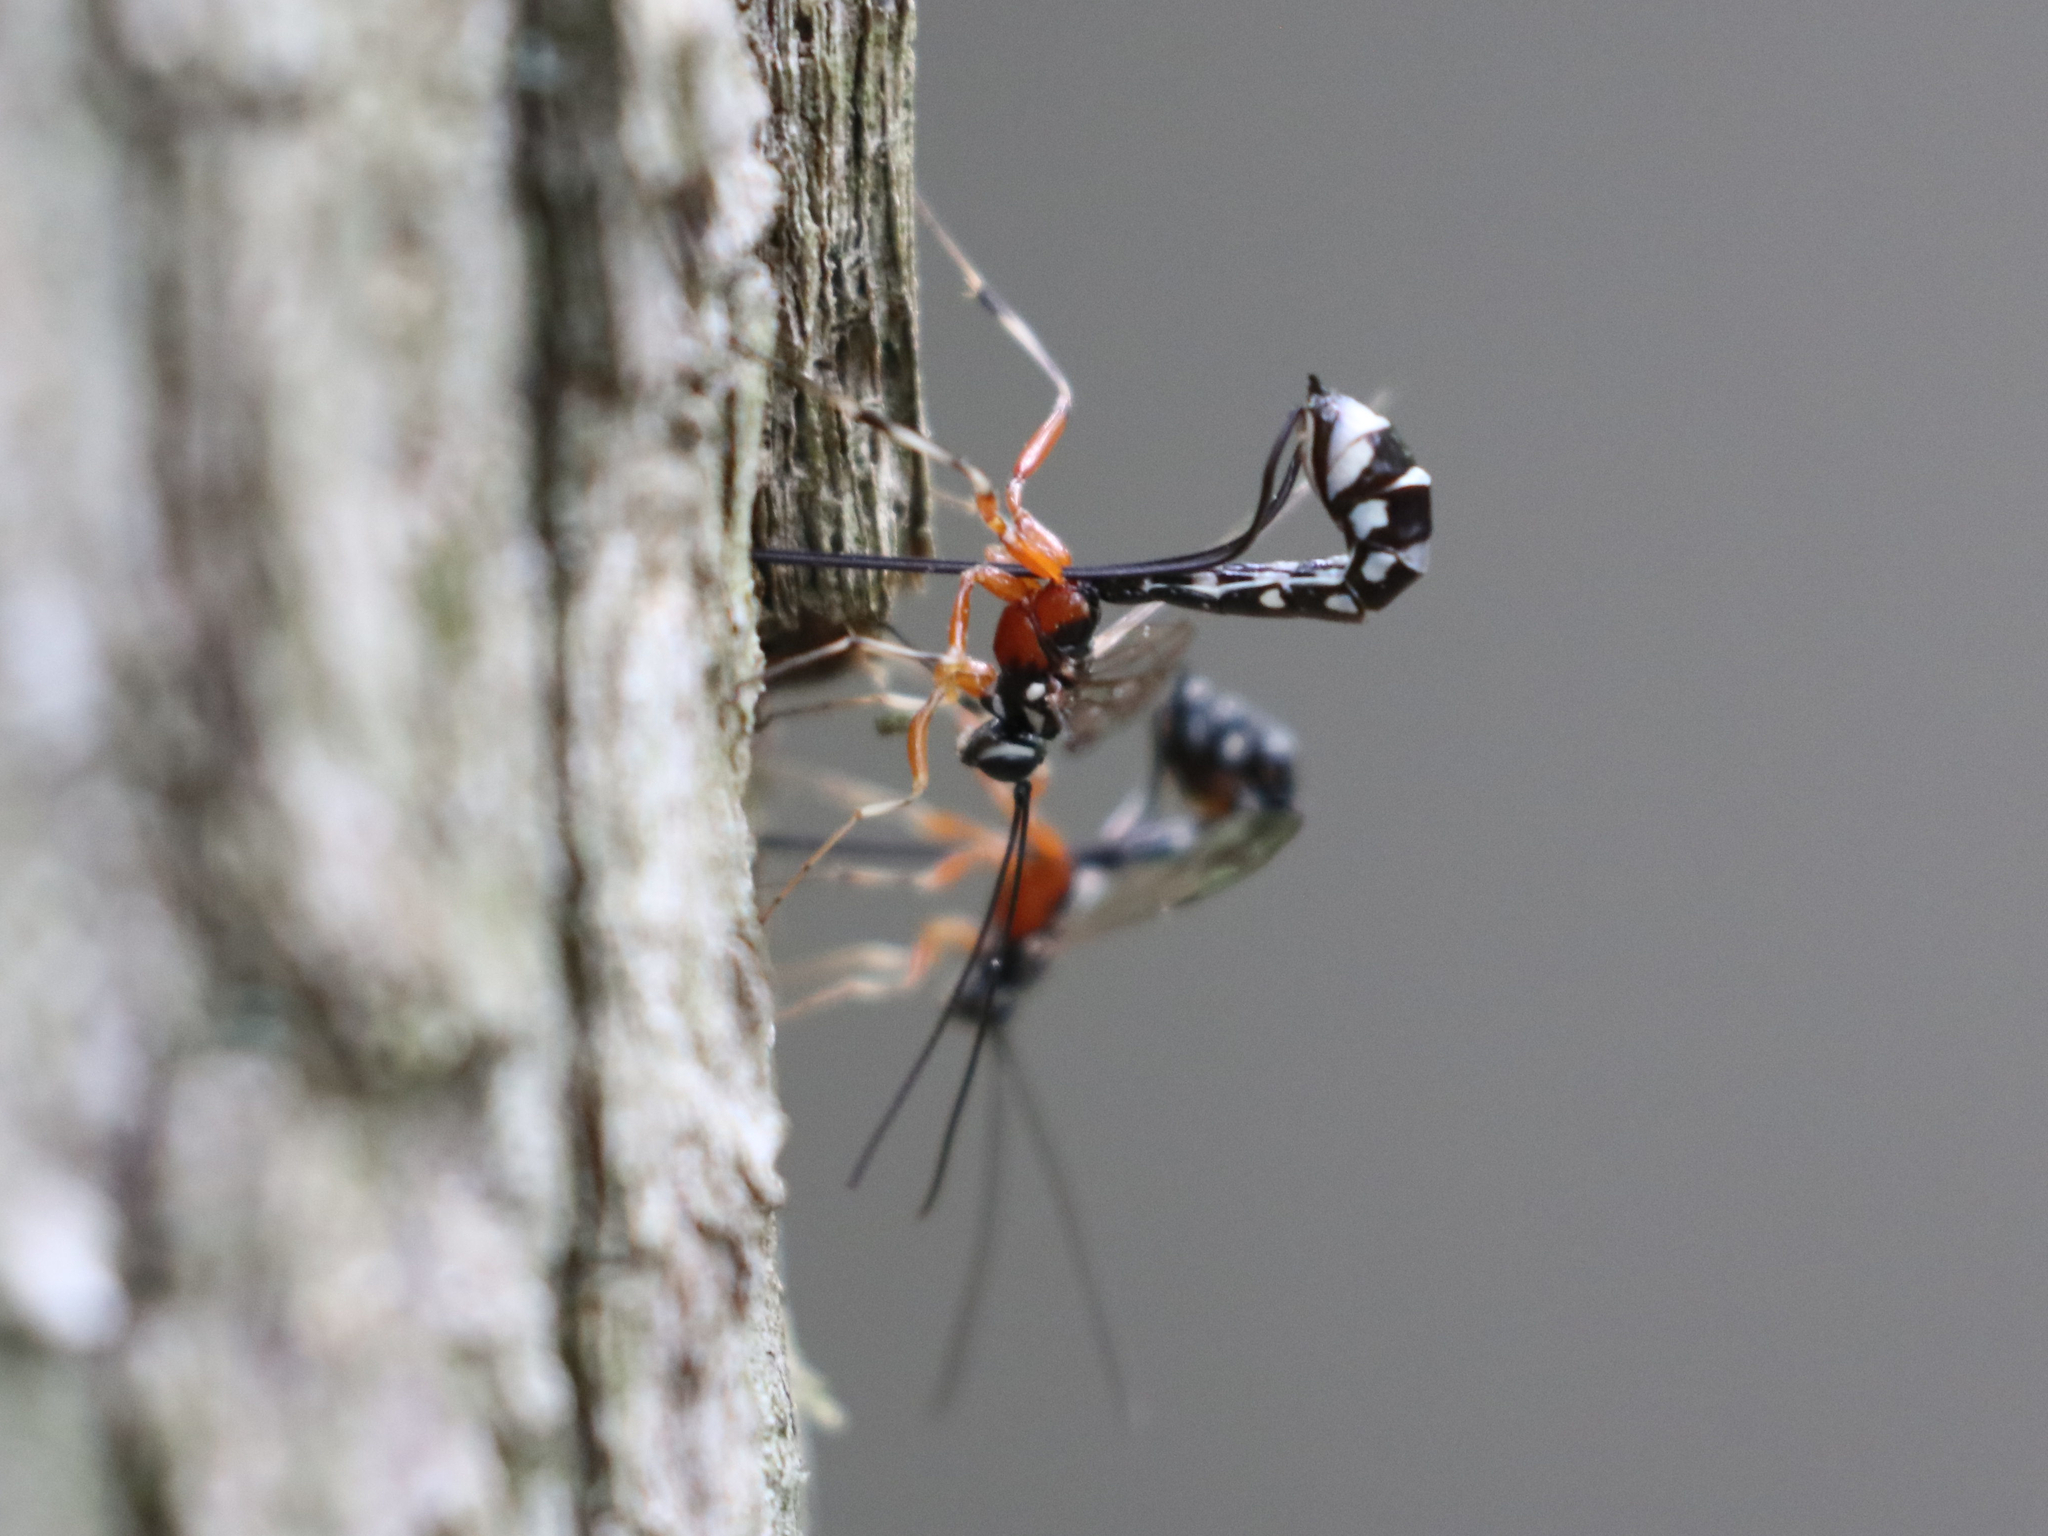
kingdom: Animalia
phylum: Arthropoda
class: Insecta
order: Hymenoptera
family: Ichneumonidae
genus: Rhyssella
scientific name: Rhyssella humida
